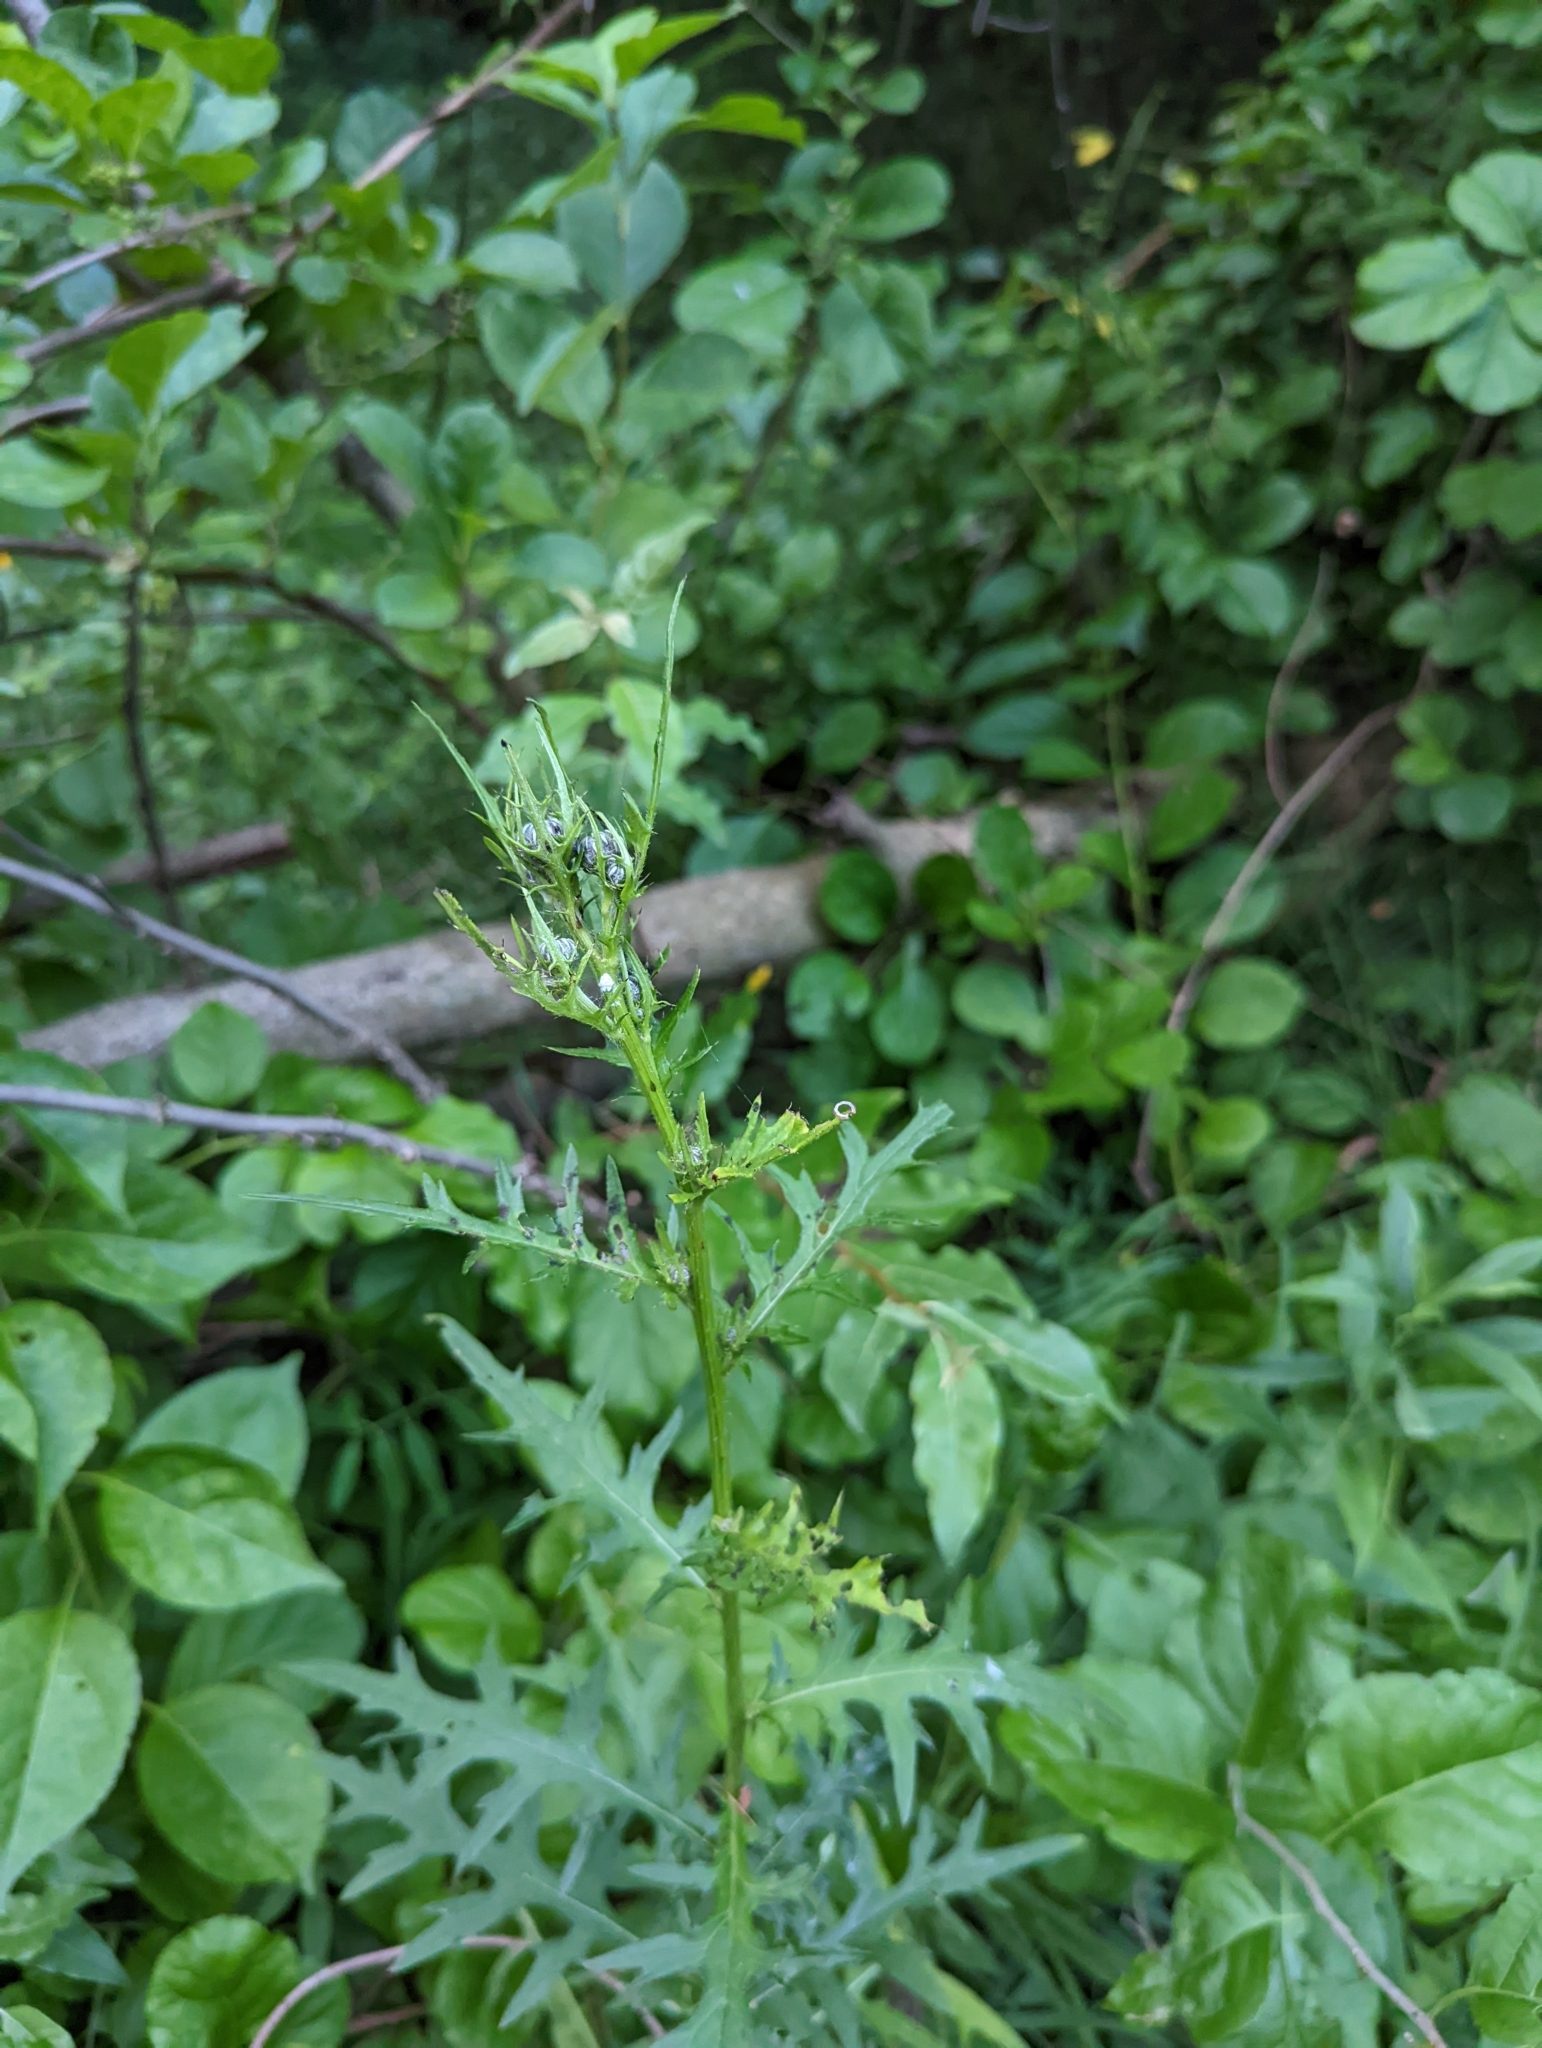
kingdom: Plantae
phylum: Tracheophyta
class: Magnoliopsida
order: Asterales
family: Asteraceae
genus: Cirsium
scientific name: Cirsium muticum
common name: Dunce-nettle
